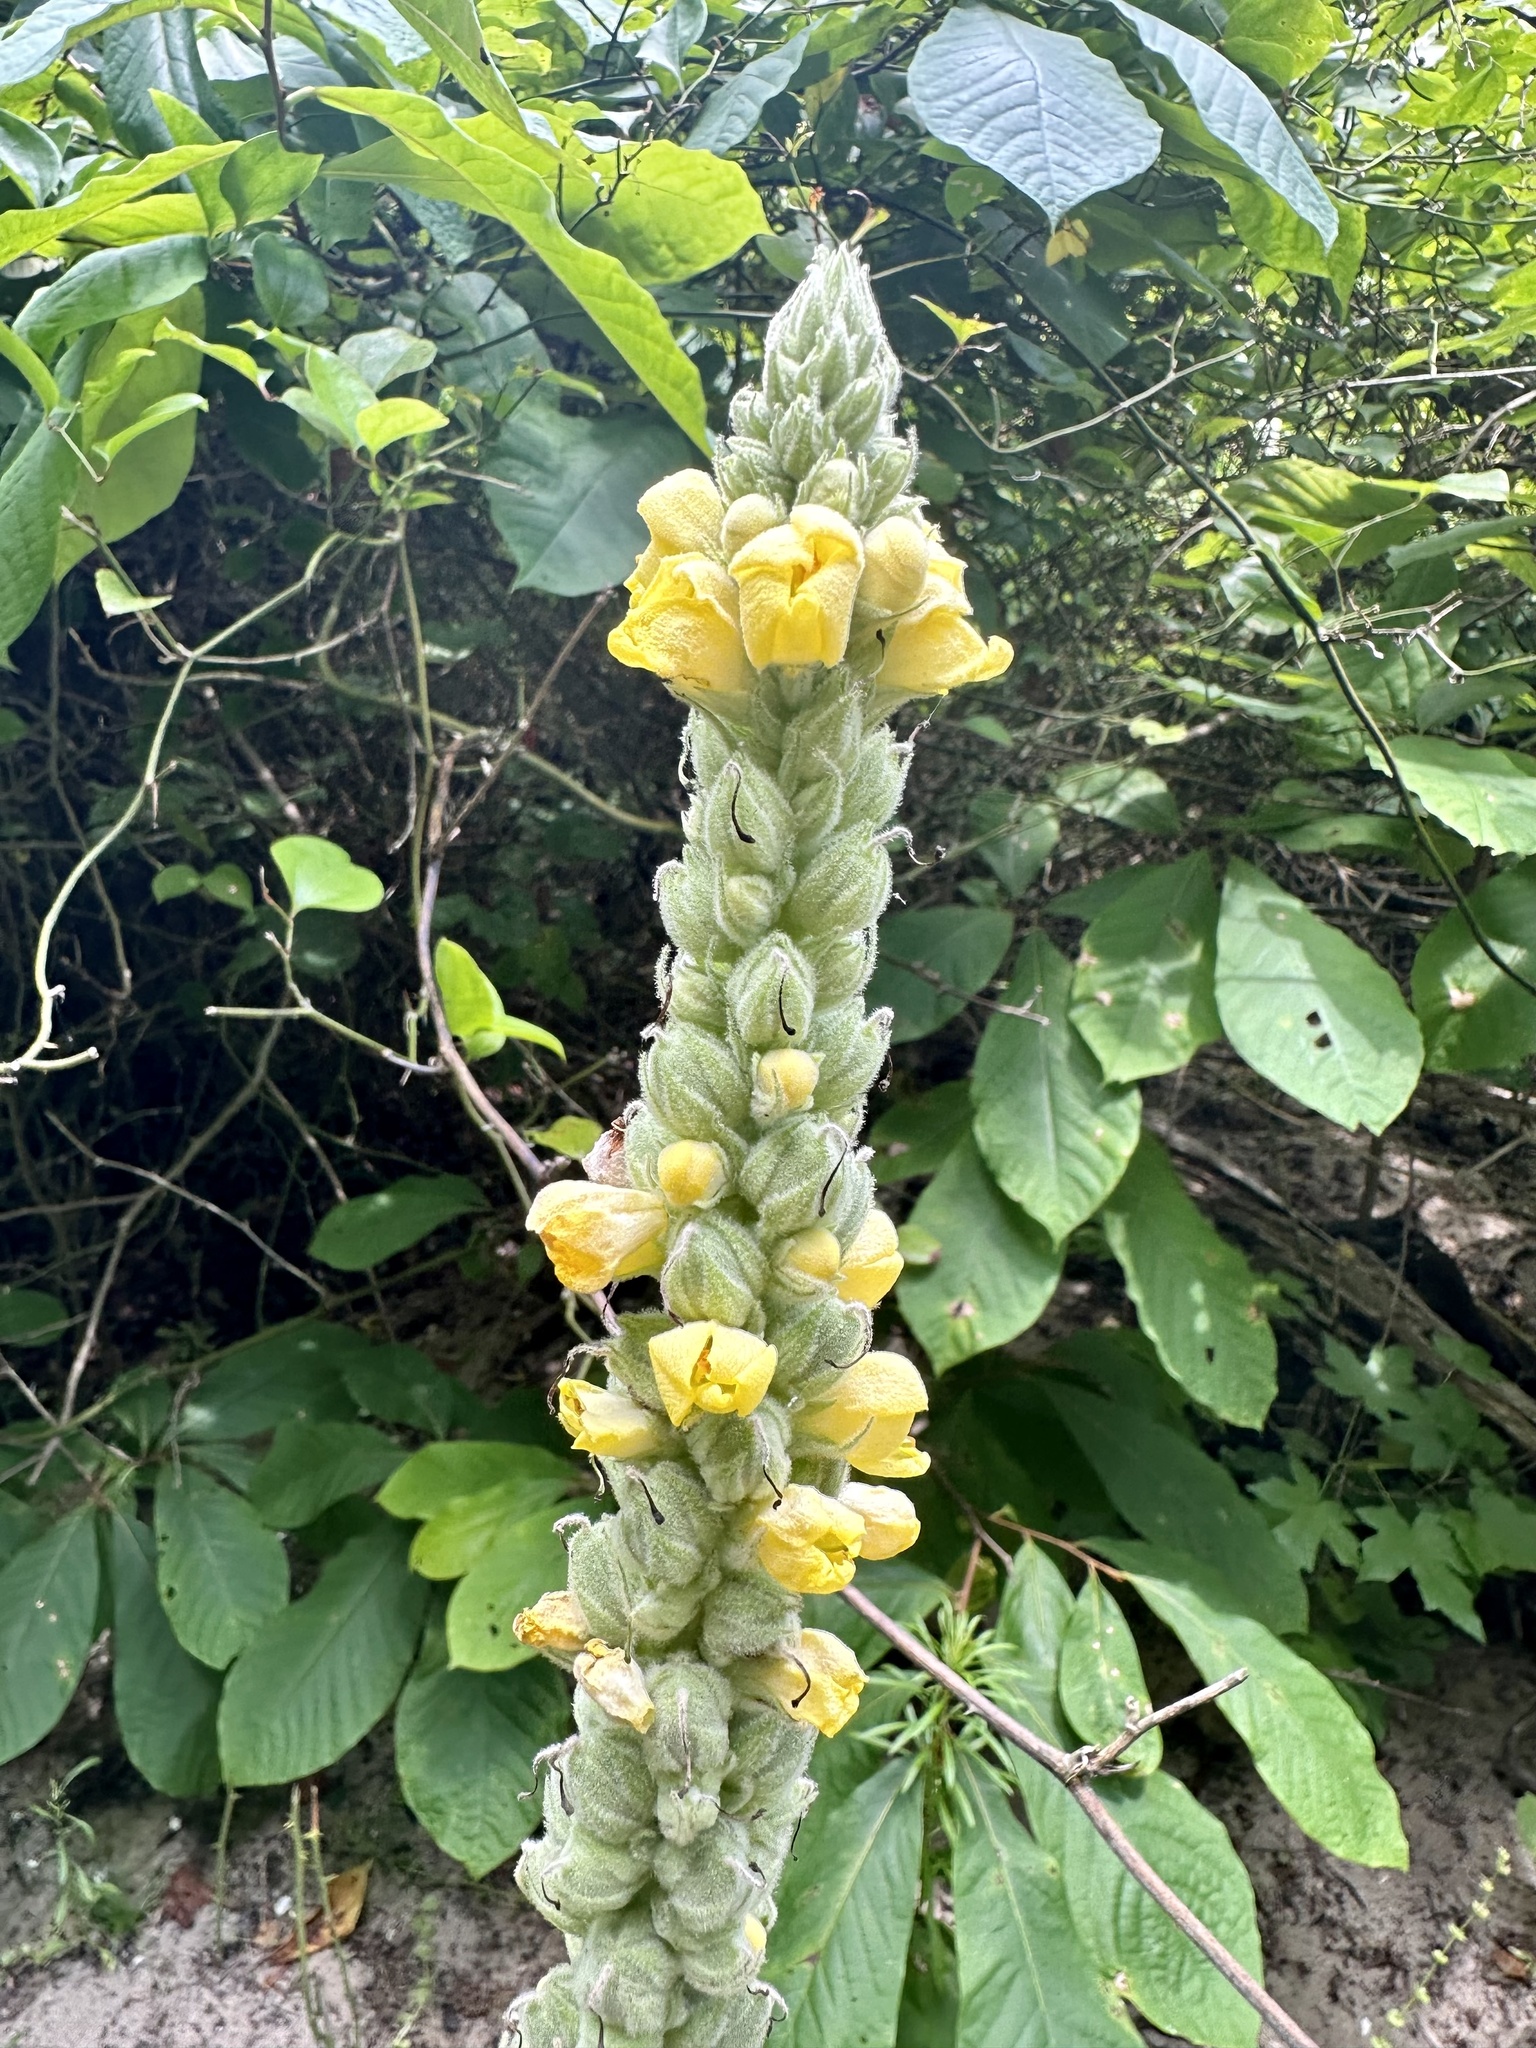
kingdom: Plantae
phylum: Tracheophyta
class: Magnoliopsida
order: Lamiales
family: Scrophulariaceae
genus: Verbascum
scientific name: Verbascum thapsus
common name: Common mullein
